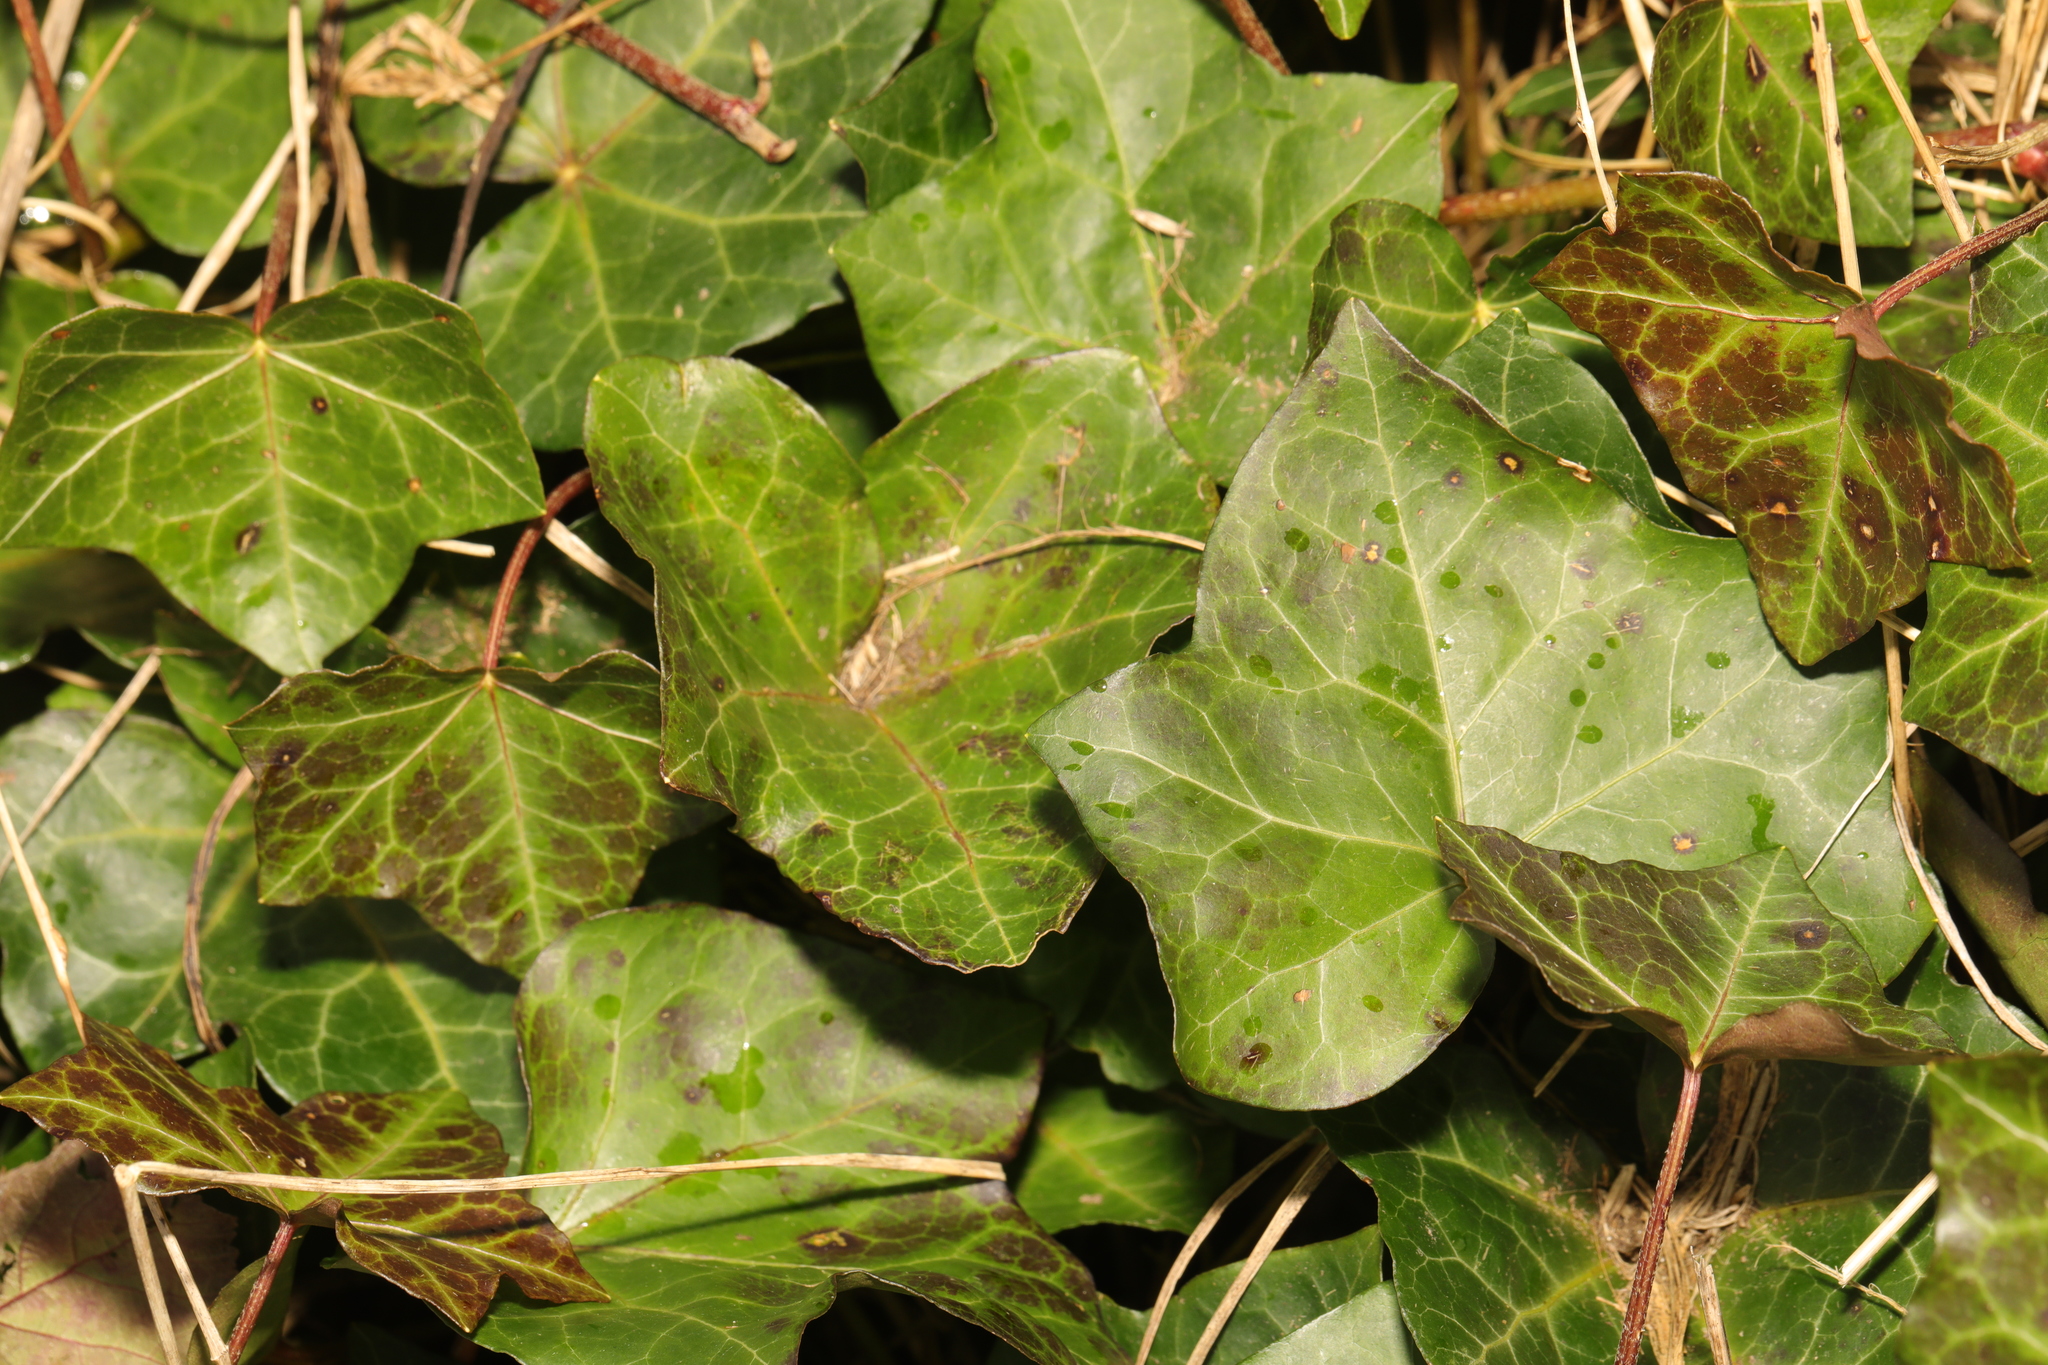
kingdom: Plantae
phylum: Tracheophyta
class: Magnoliopsida
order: Apiales
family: Araliaceae
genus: Hedera
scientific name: Hedera helix
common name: Ivy
